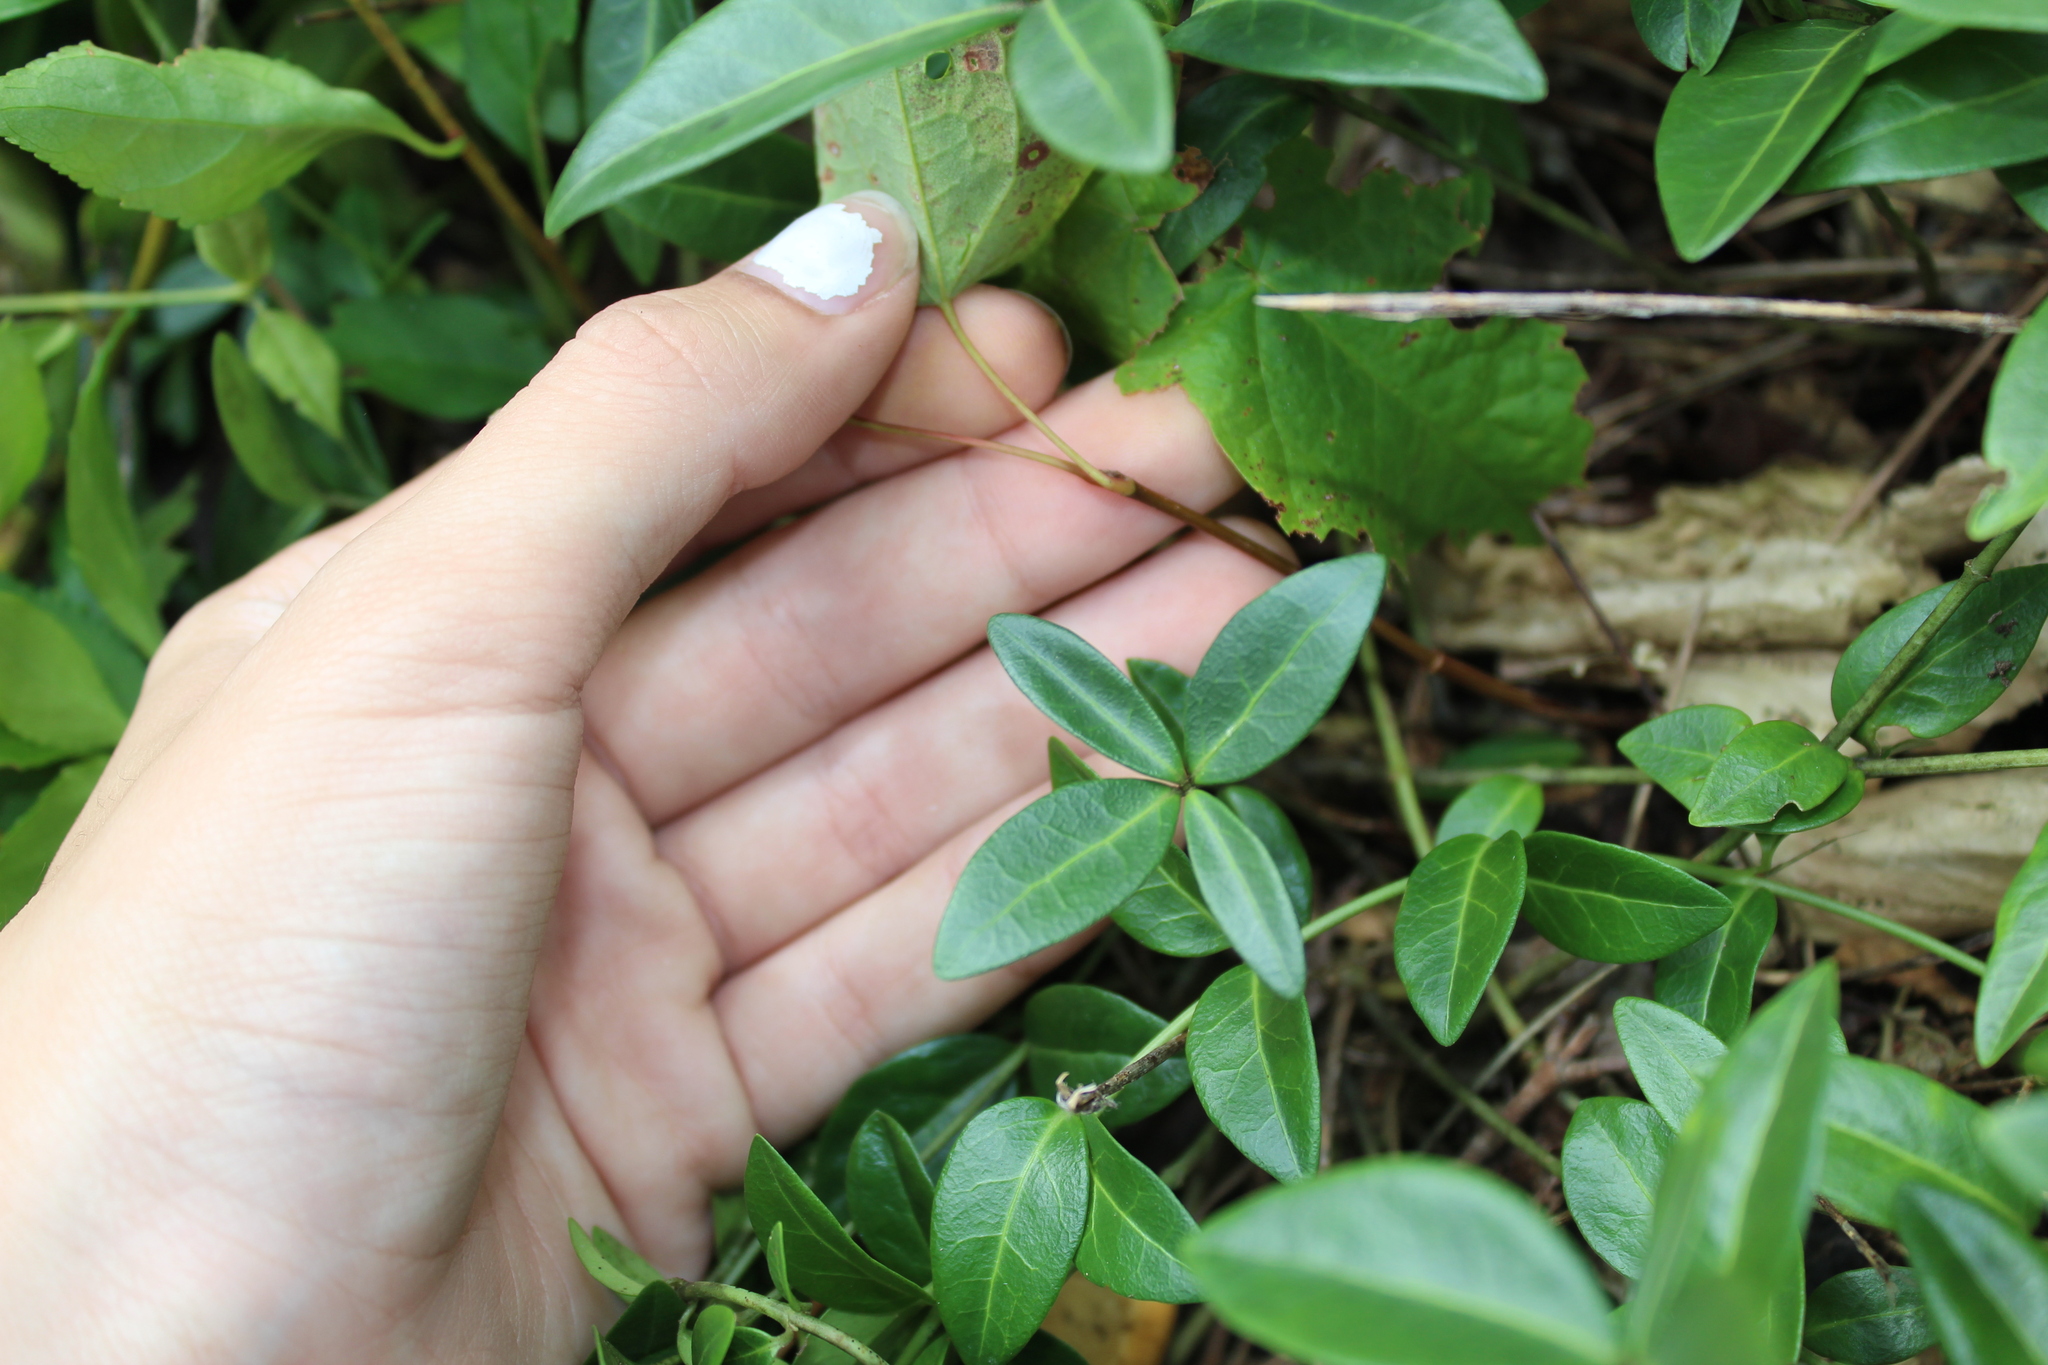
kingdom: Plantae
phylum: Tracheophyta
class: Magnoliopsida
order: Gentianales
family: Apocynaceae
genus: Vinca
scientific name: Vinca minor
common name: Lesser periwinkle
